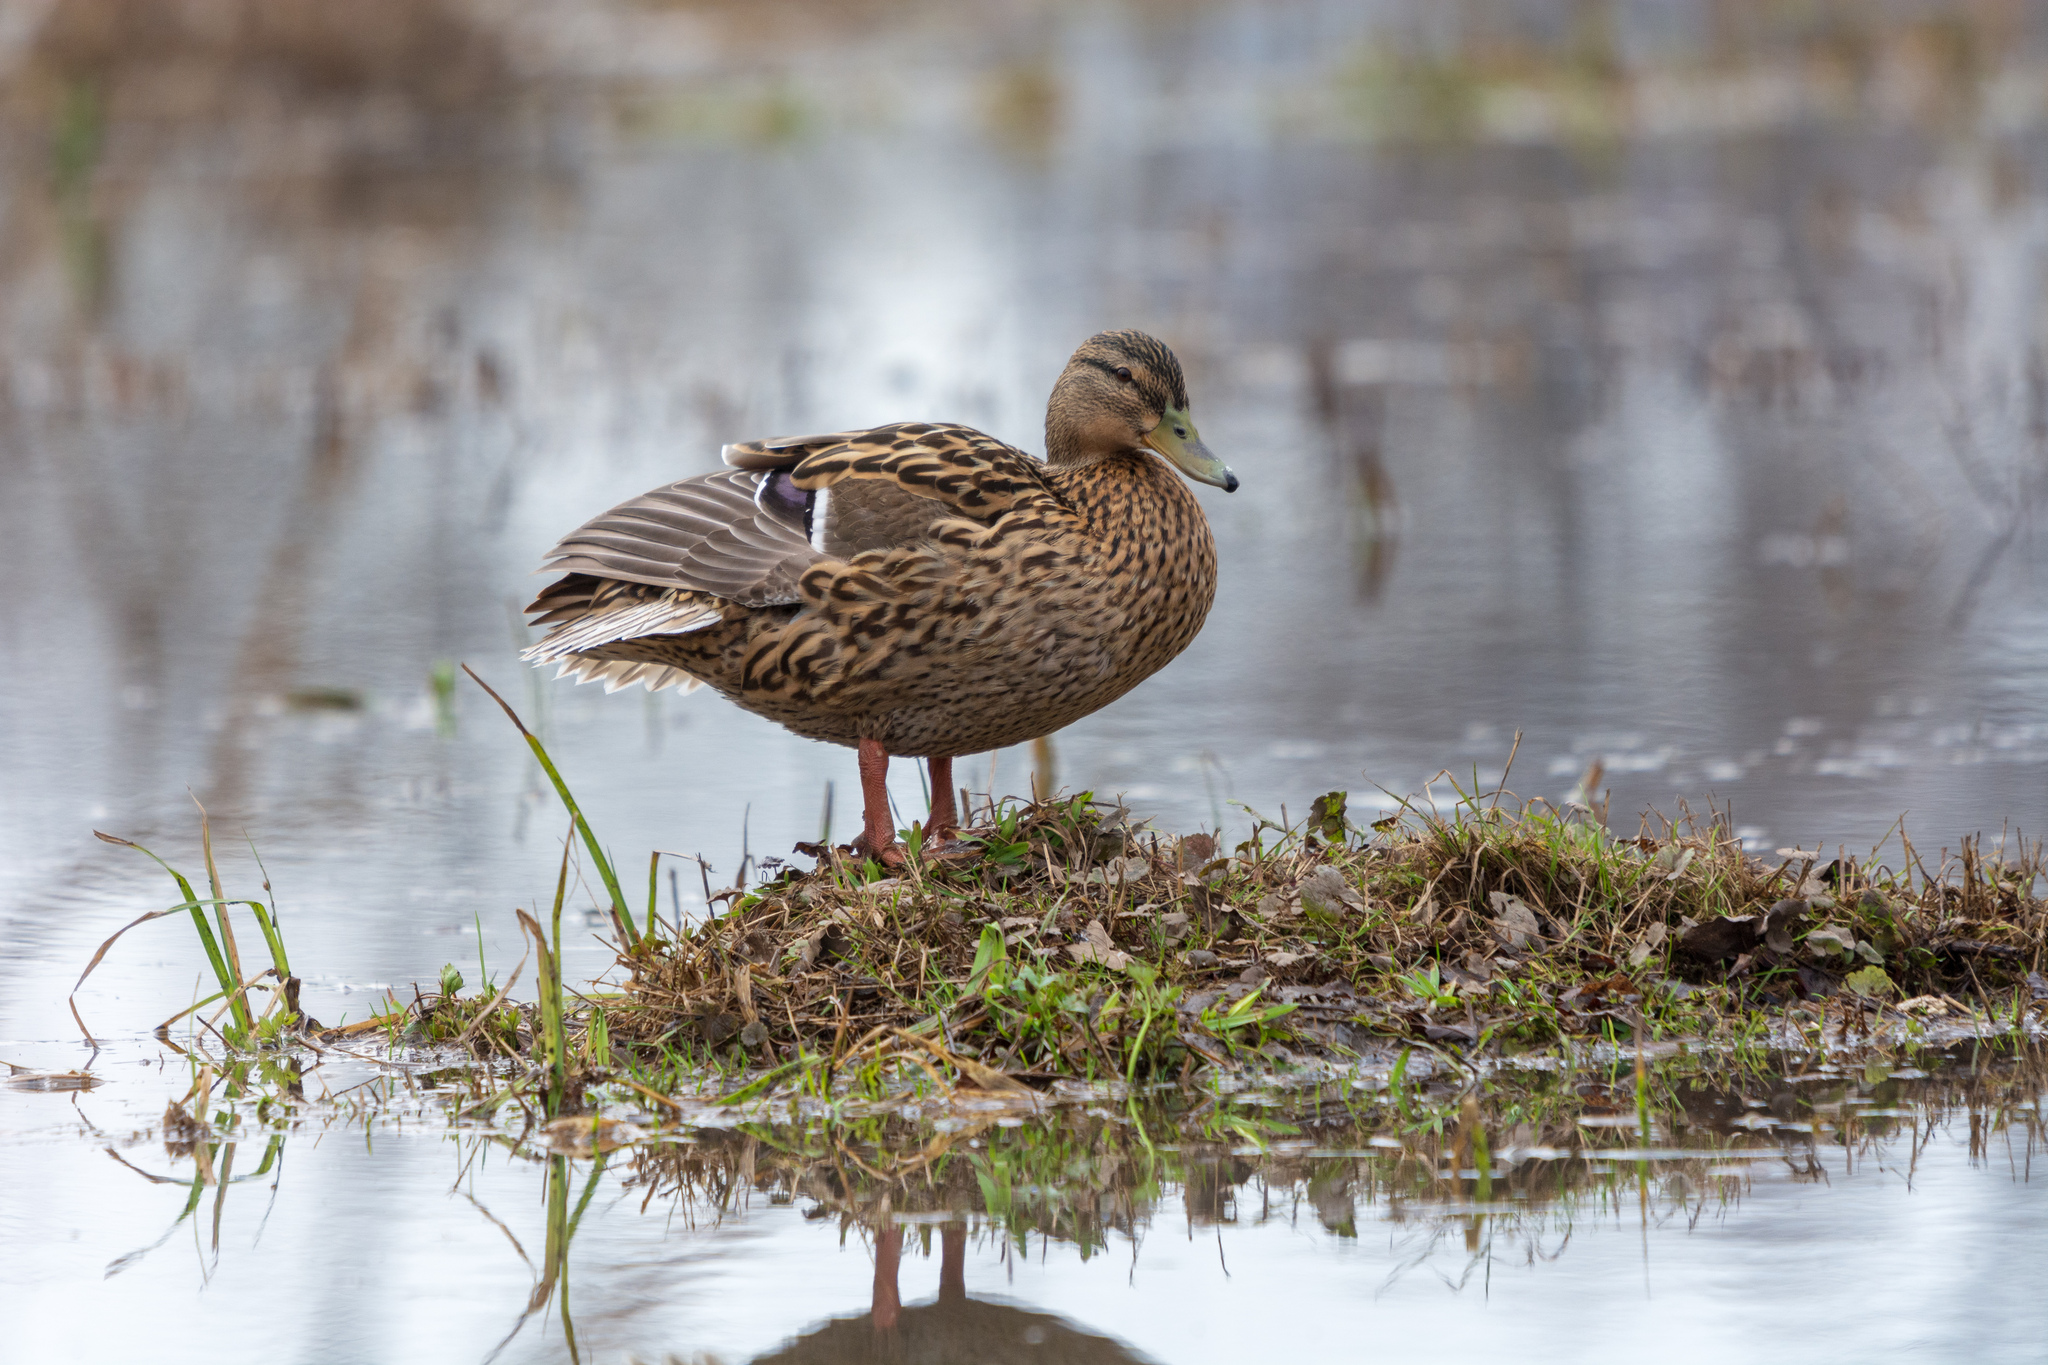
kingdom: Animalia
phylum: Chordata
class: Aves
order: Anseriformes
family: Anatidae
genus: Anas
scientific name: Anas platyrhynchos
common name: Mallard
